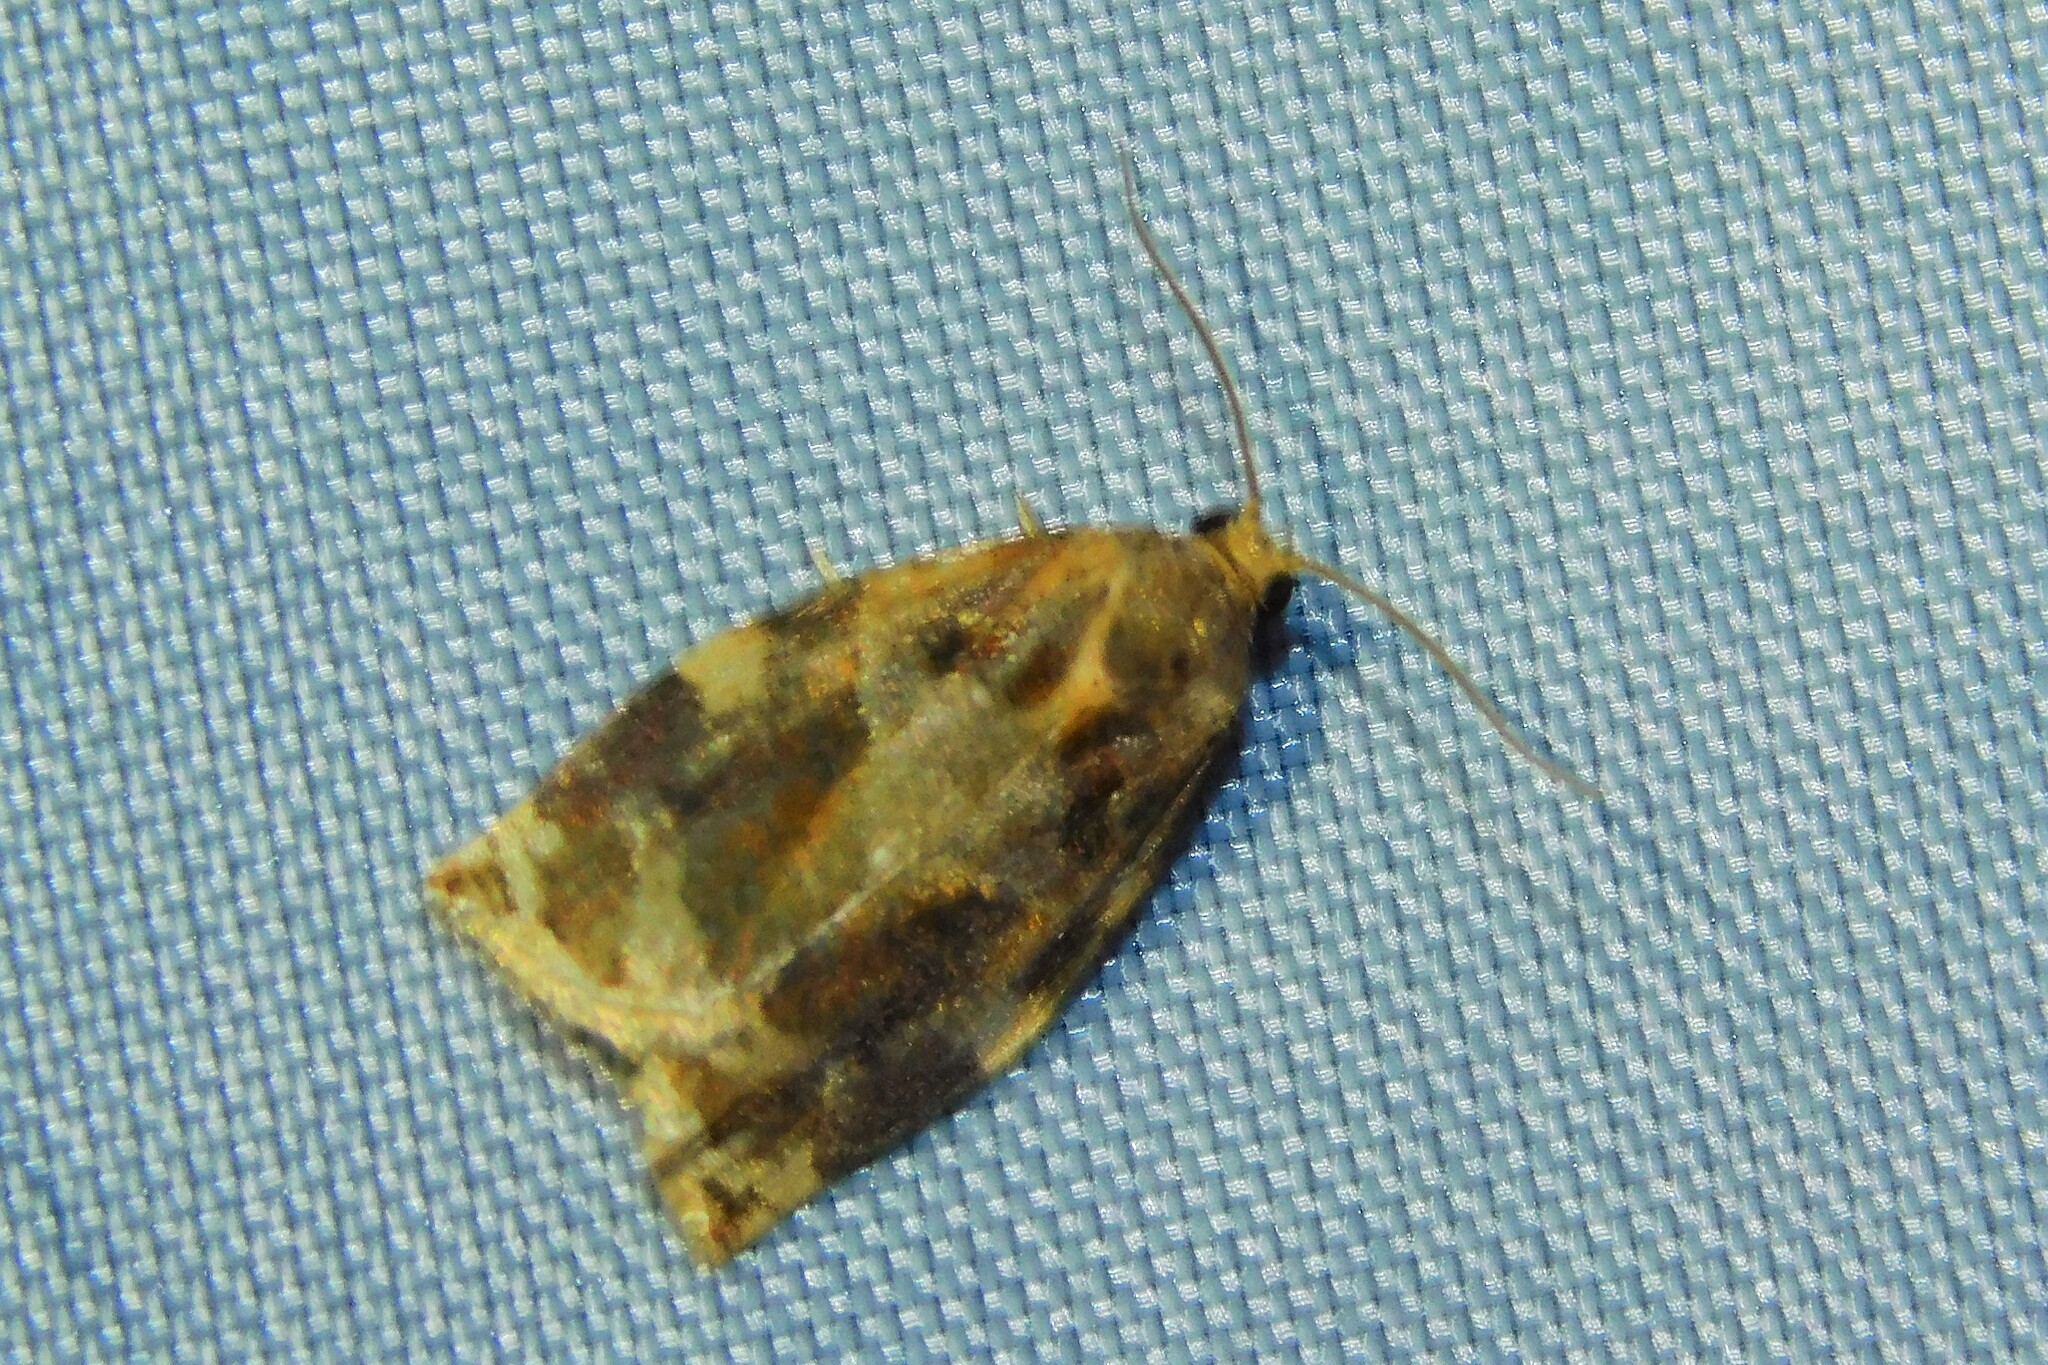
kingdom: Animalia
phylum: Arthropoda
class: Insecta
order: Lepidoptera
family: Tortricidae
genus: Archips
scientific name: Archips xylosteana
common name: Variegated golden tortrix
